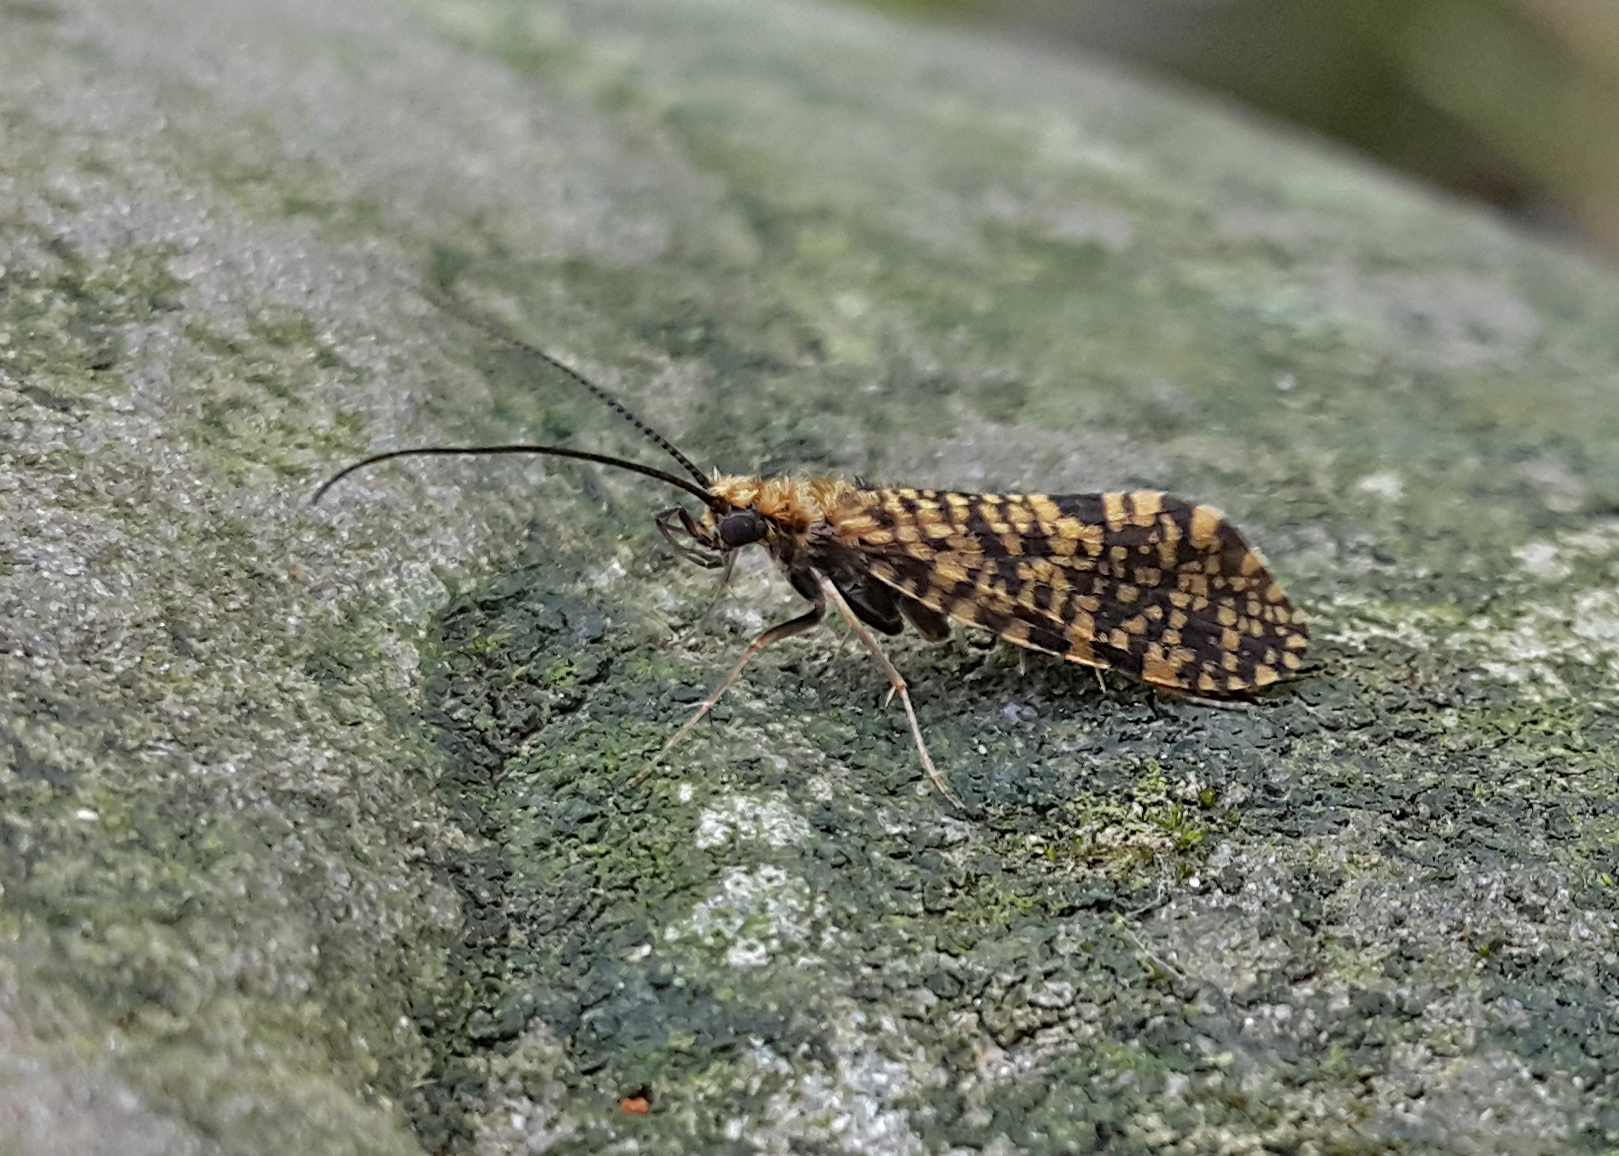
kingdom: Animalia
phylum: Arthropoda
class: Insecta
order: Trichoptera
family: Philopotamidae
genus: Philopotamus
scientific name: Philopotamus montanus
